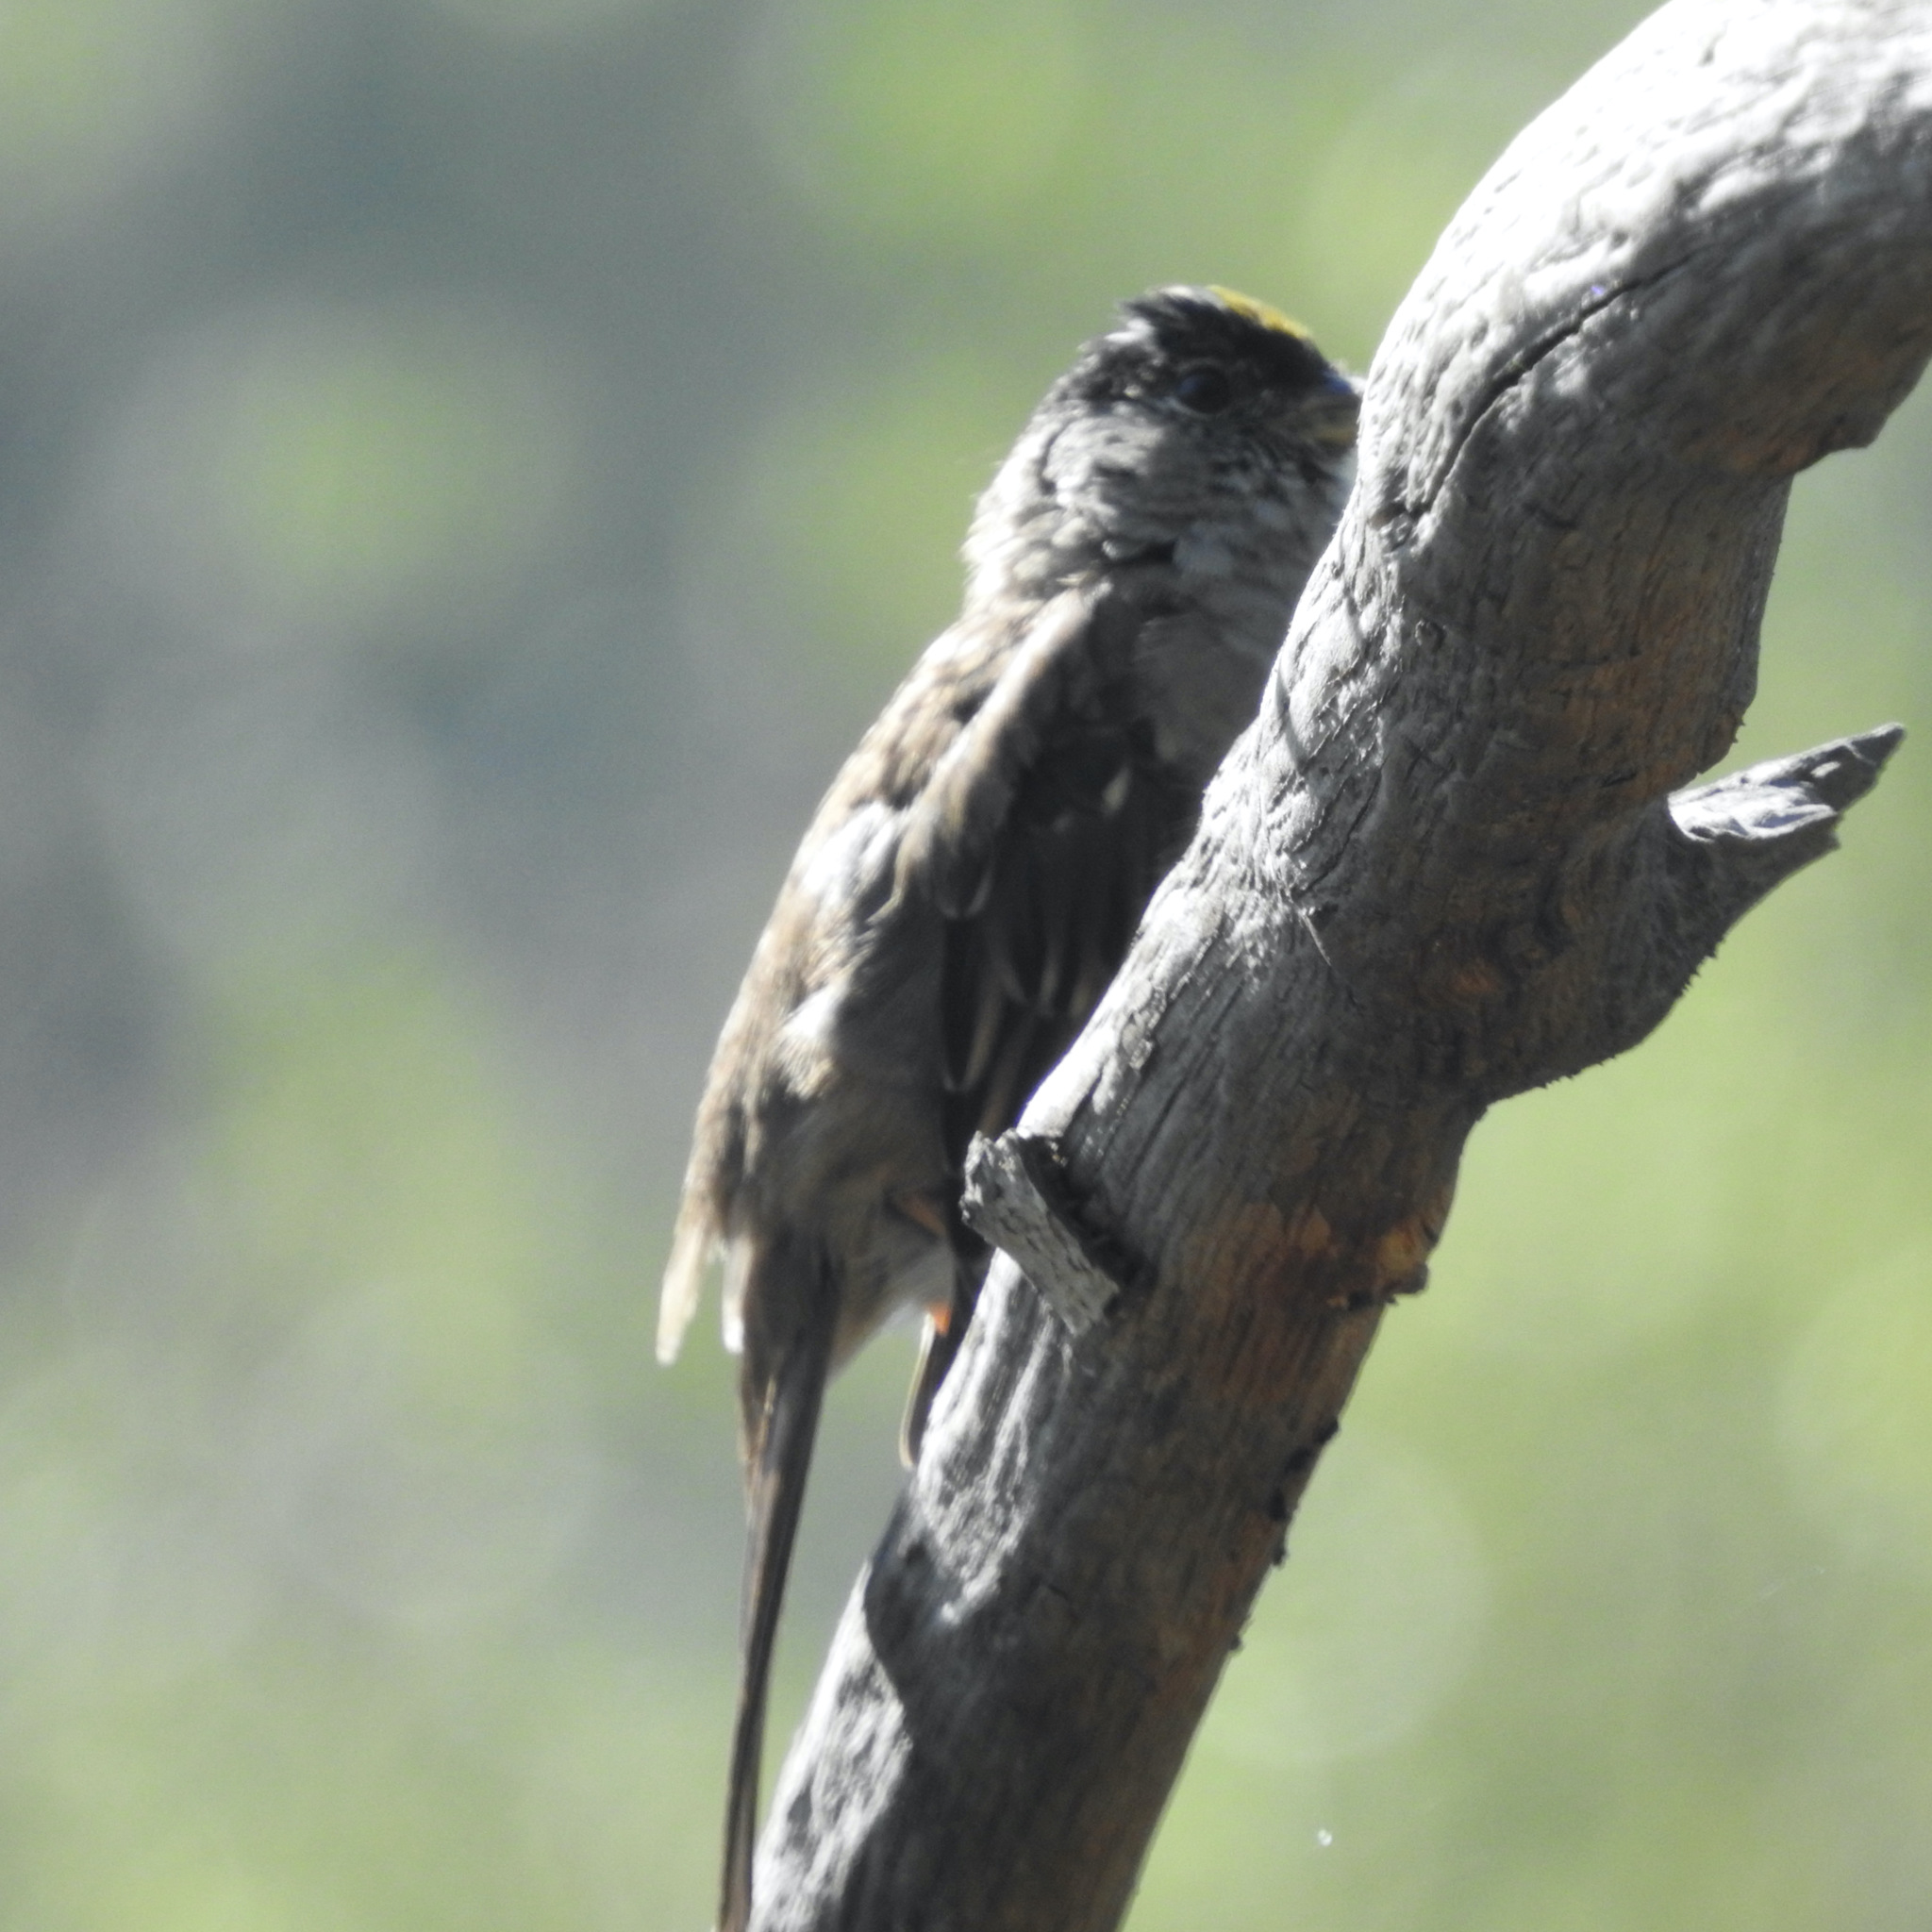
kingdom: Animalia
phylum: Chordata
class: Aves
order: Passeriformes
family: Passerellidae
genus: Zonotrichia
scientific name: Zonotrichia atricapilla
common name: Golden-crowned sparrow
